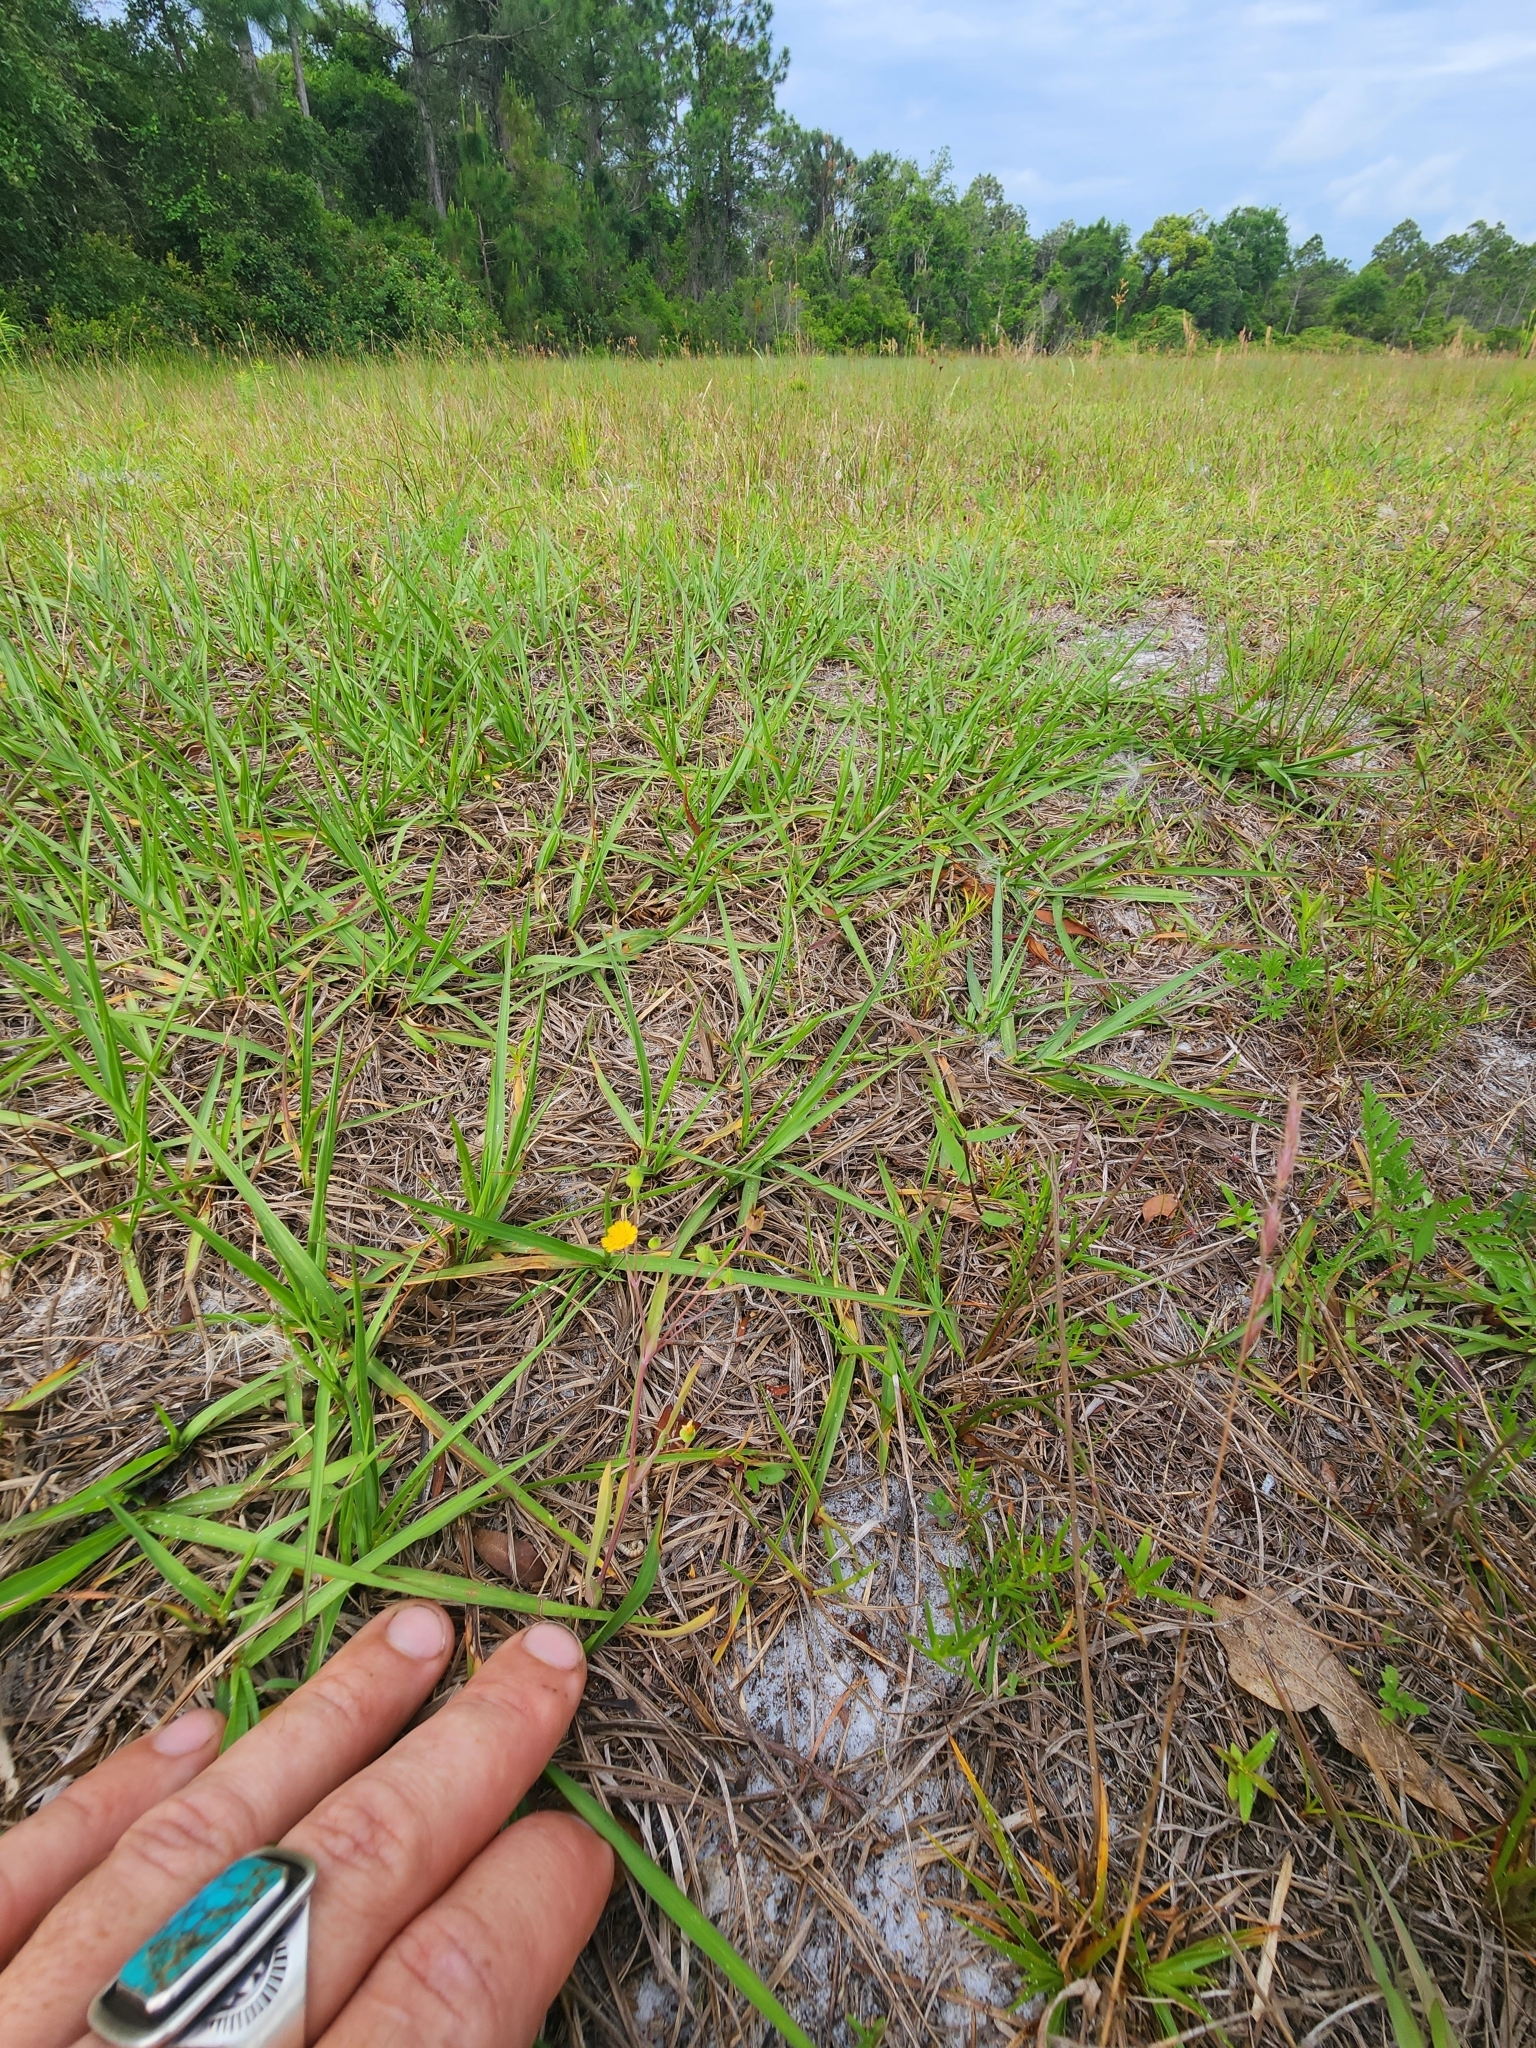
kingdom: Plantae
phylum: Tracheophyta
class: Magnoliopsida
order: Asterales
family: Asteraceae
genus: Krigia
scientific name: Krigia cespitosa
